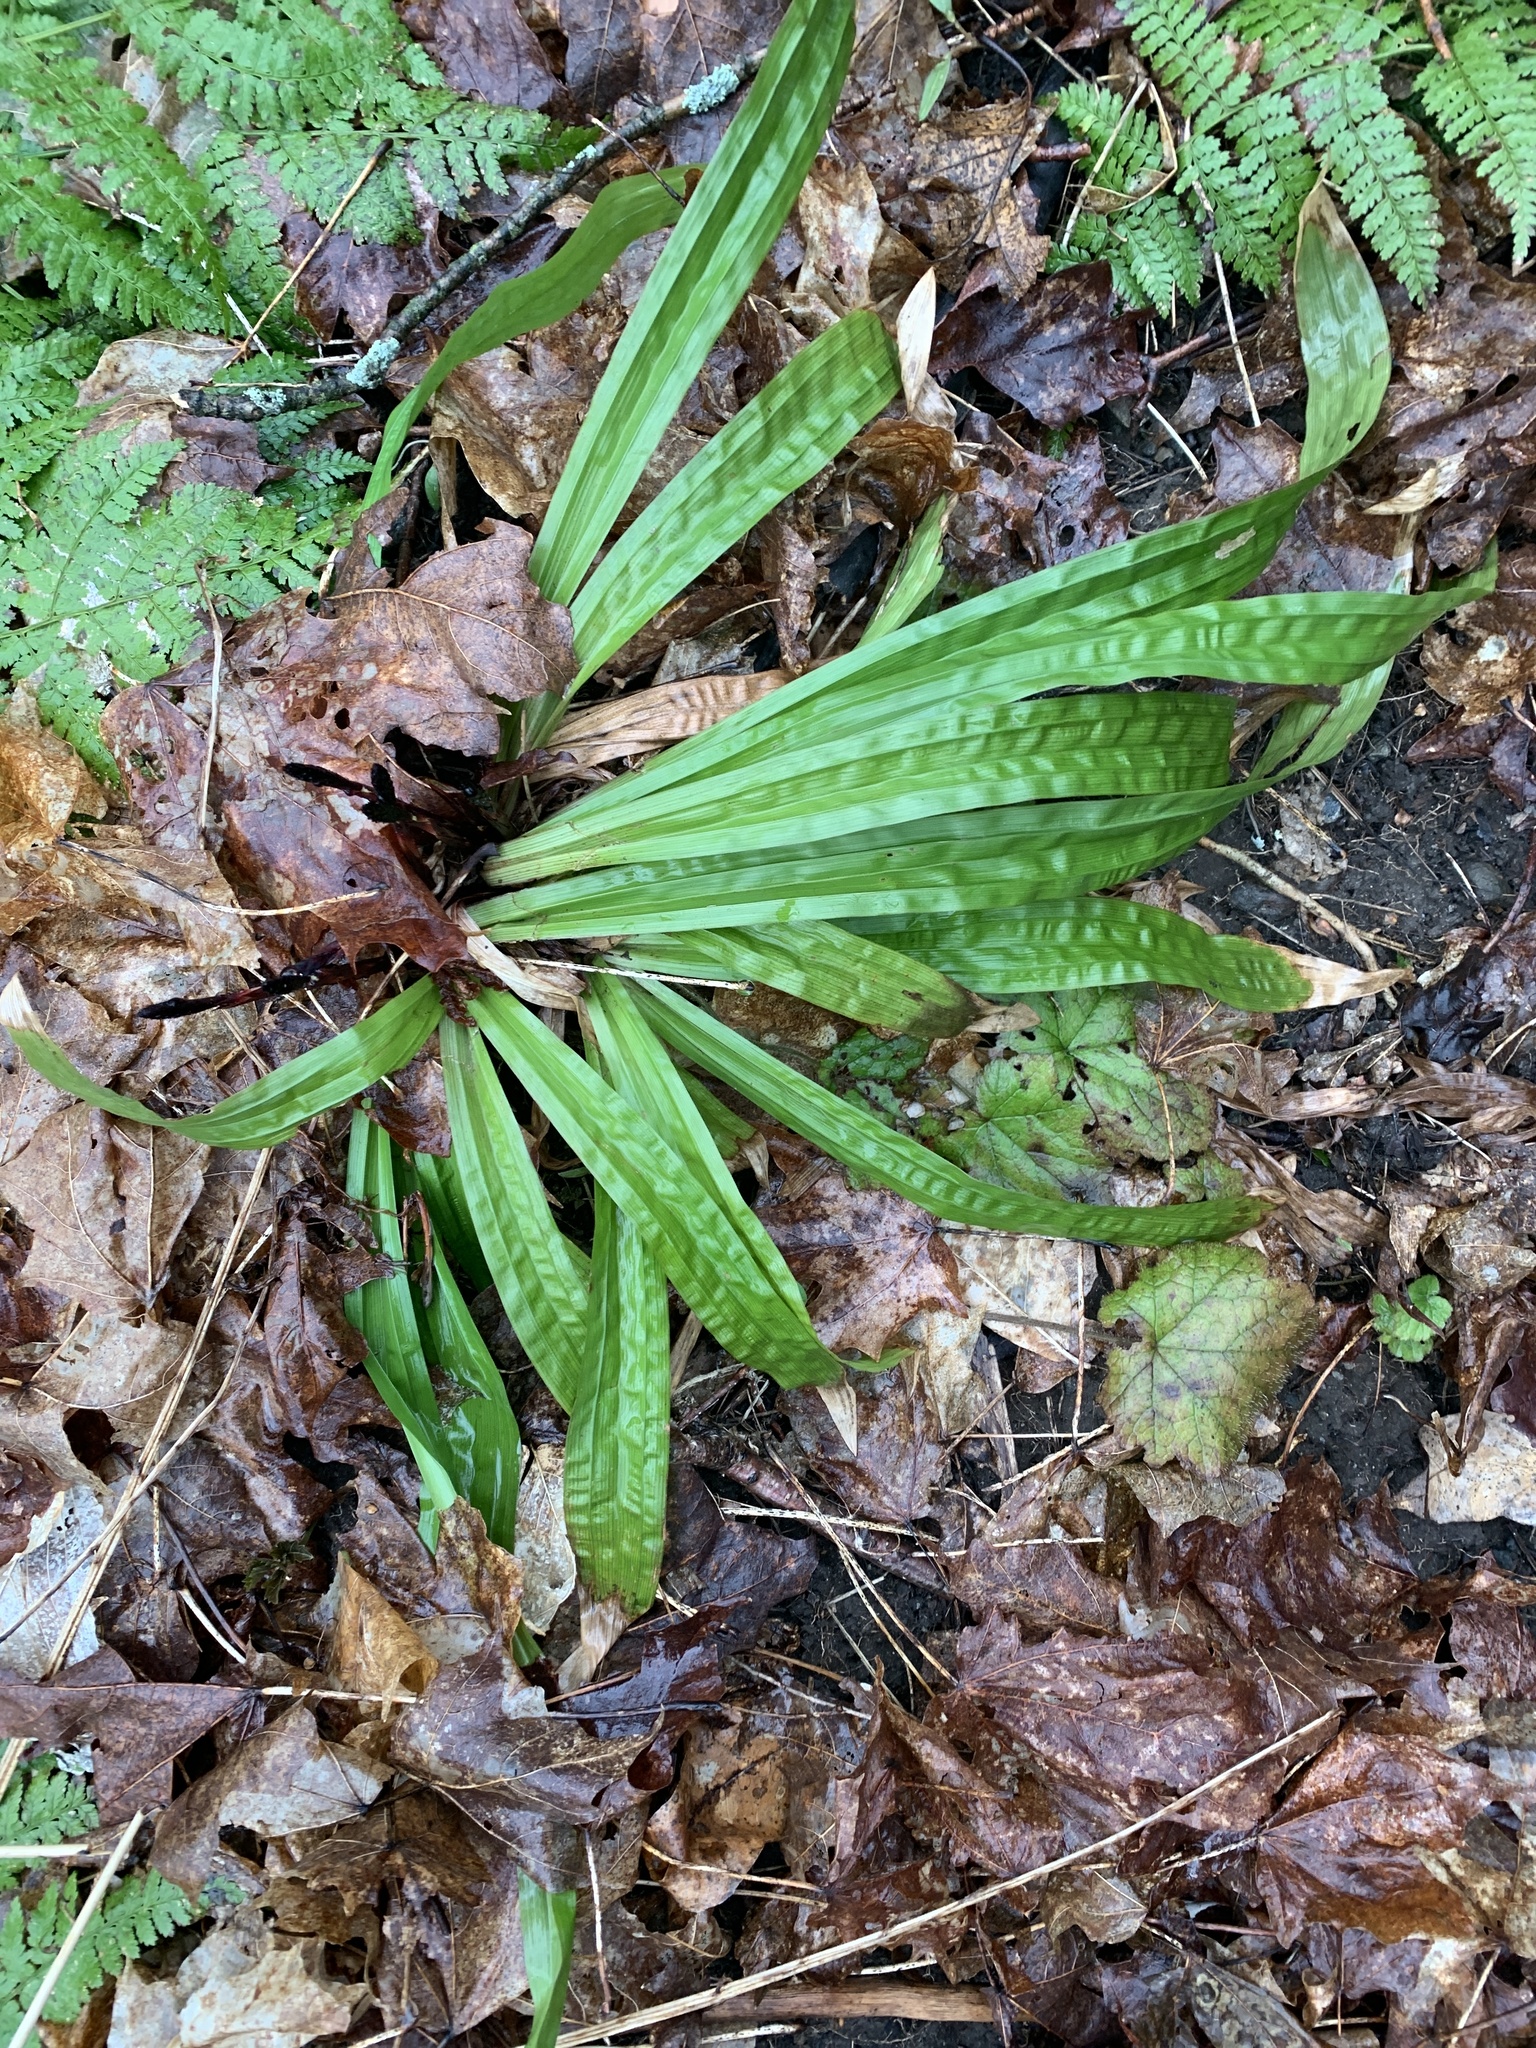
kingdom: Plantae
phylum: Tracheophyta
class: Liliopsida
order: Poales
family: Cyperaceae
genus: Carex
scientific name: Carex plantaginea
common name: Plantain-leaved sedge
